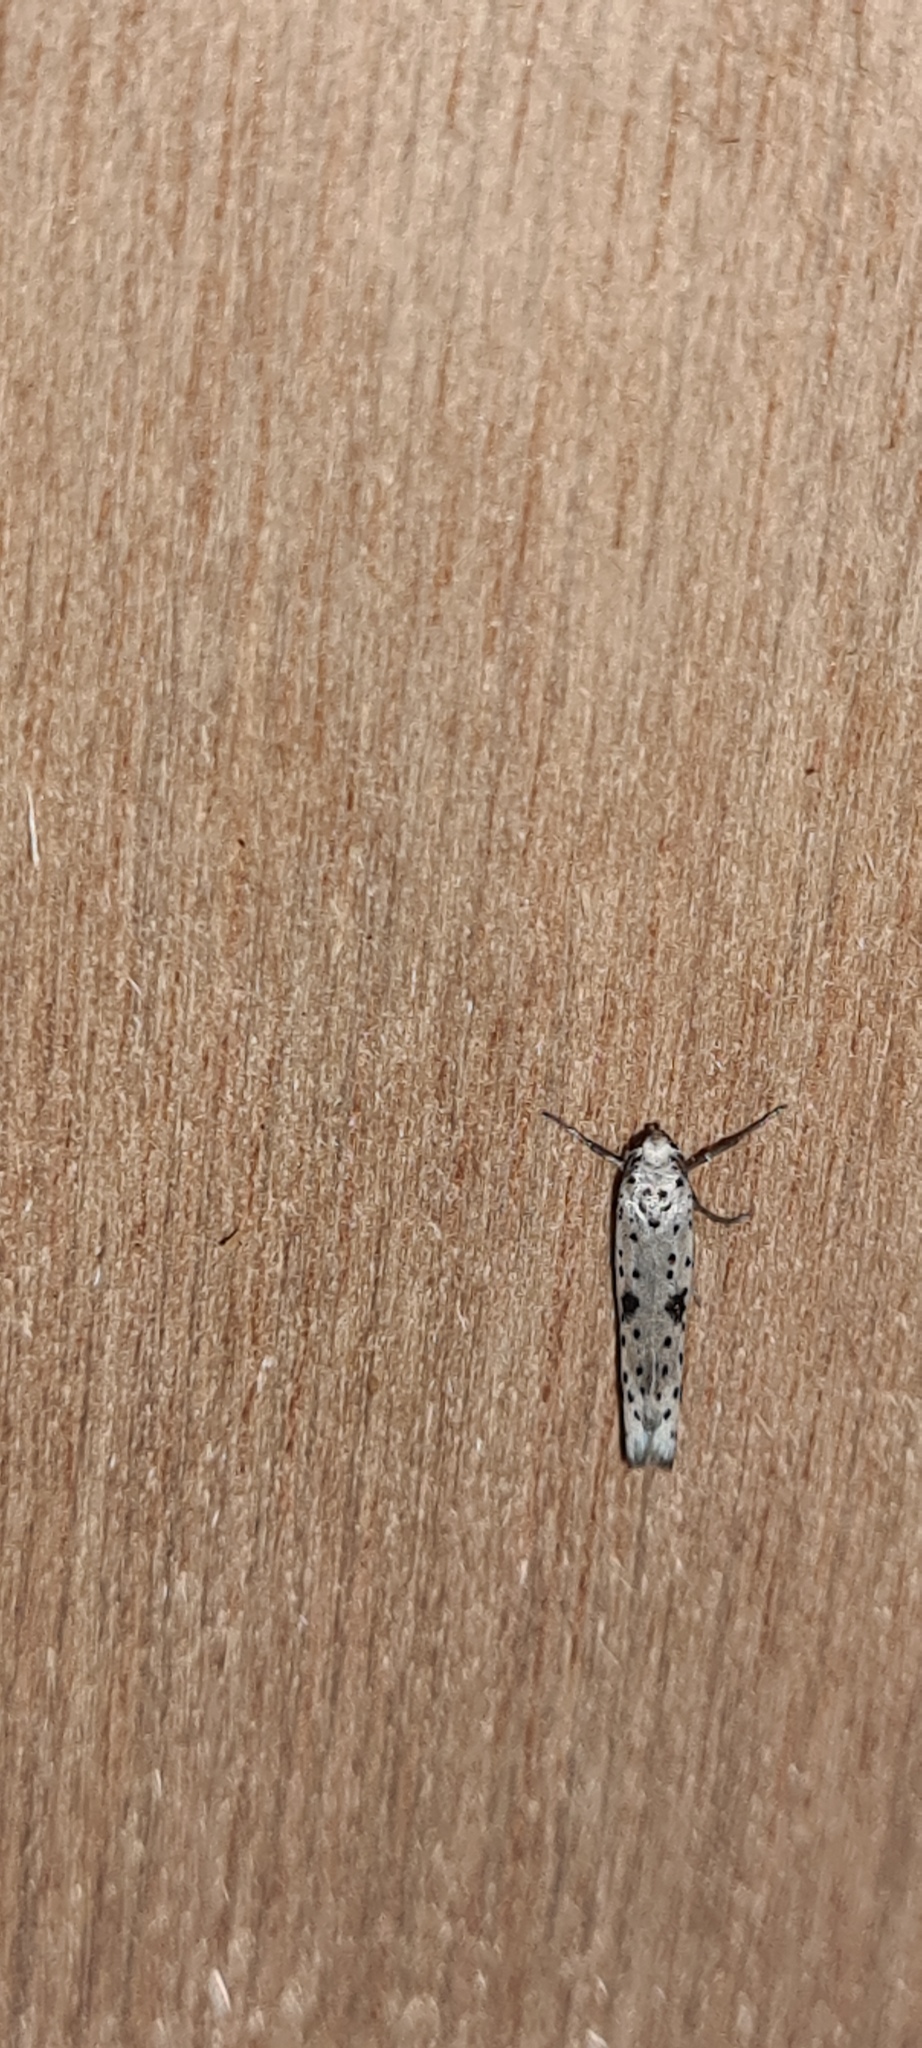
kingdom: Animalia
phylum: Arthropoda
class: Insecta
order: Lepidoptera
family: Yponomeutidae
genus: Yponomeuta
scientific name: Yponomeuta plumbella
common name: Black-tipped ermine
